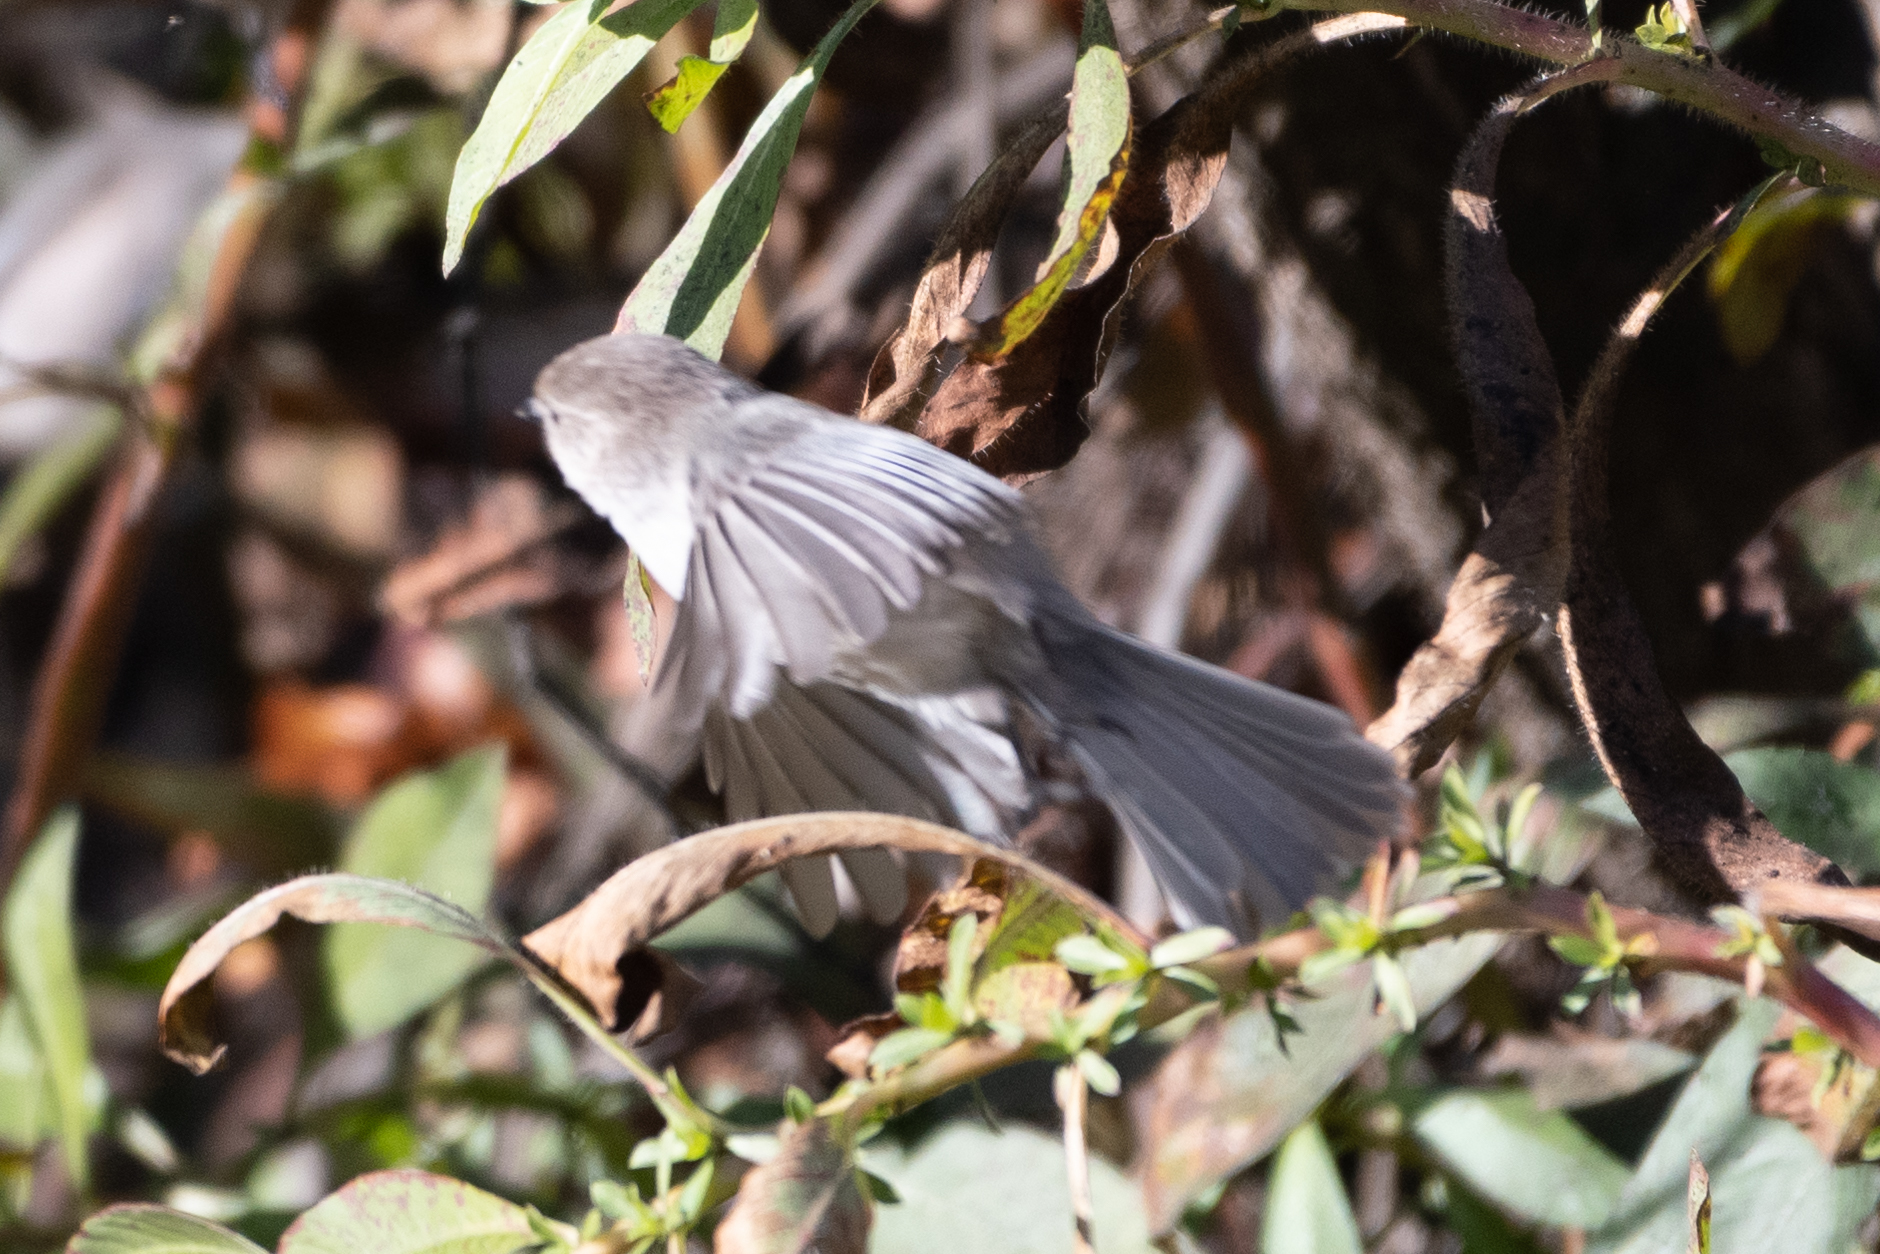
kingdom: Animalia
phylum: Chordata
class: Aves
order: Passeriformes
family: Aegithalidae
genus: Psaltriparus
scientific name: Psaltriparus minimus
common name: American bushtit
